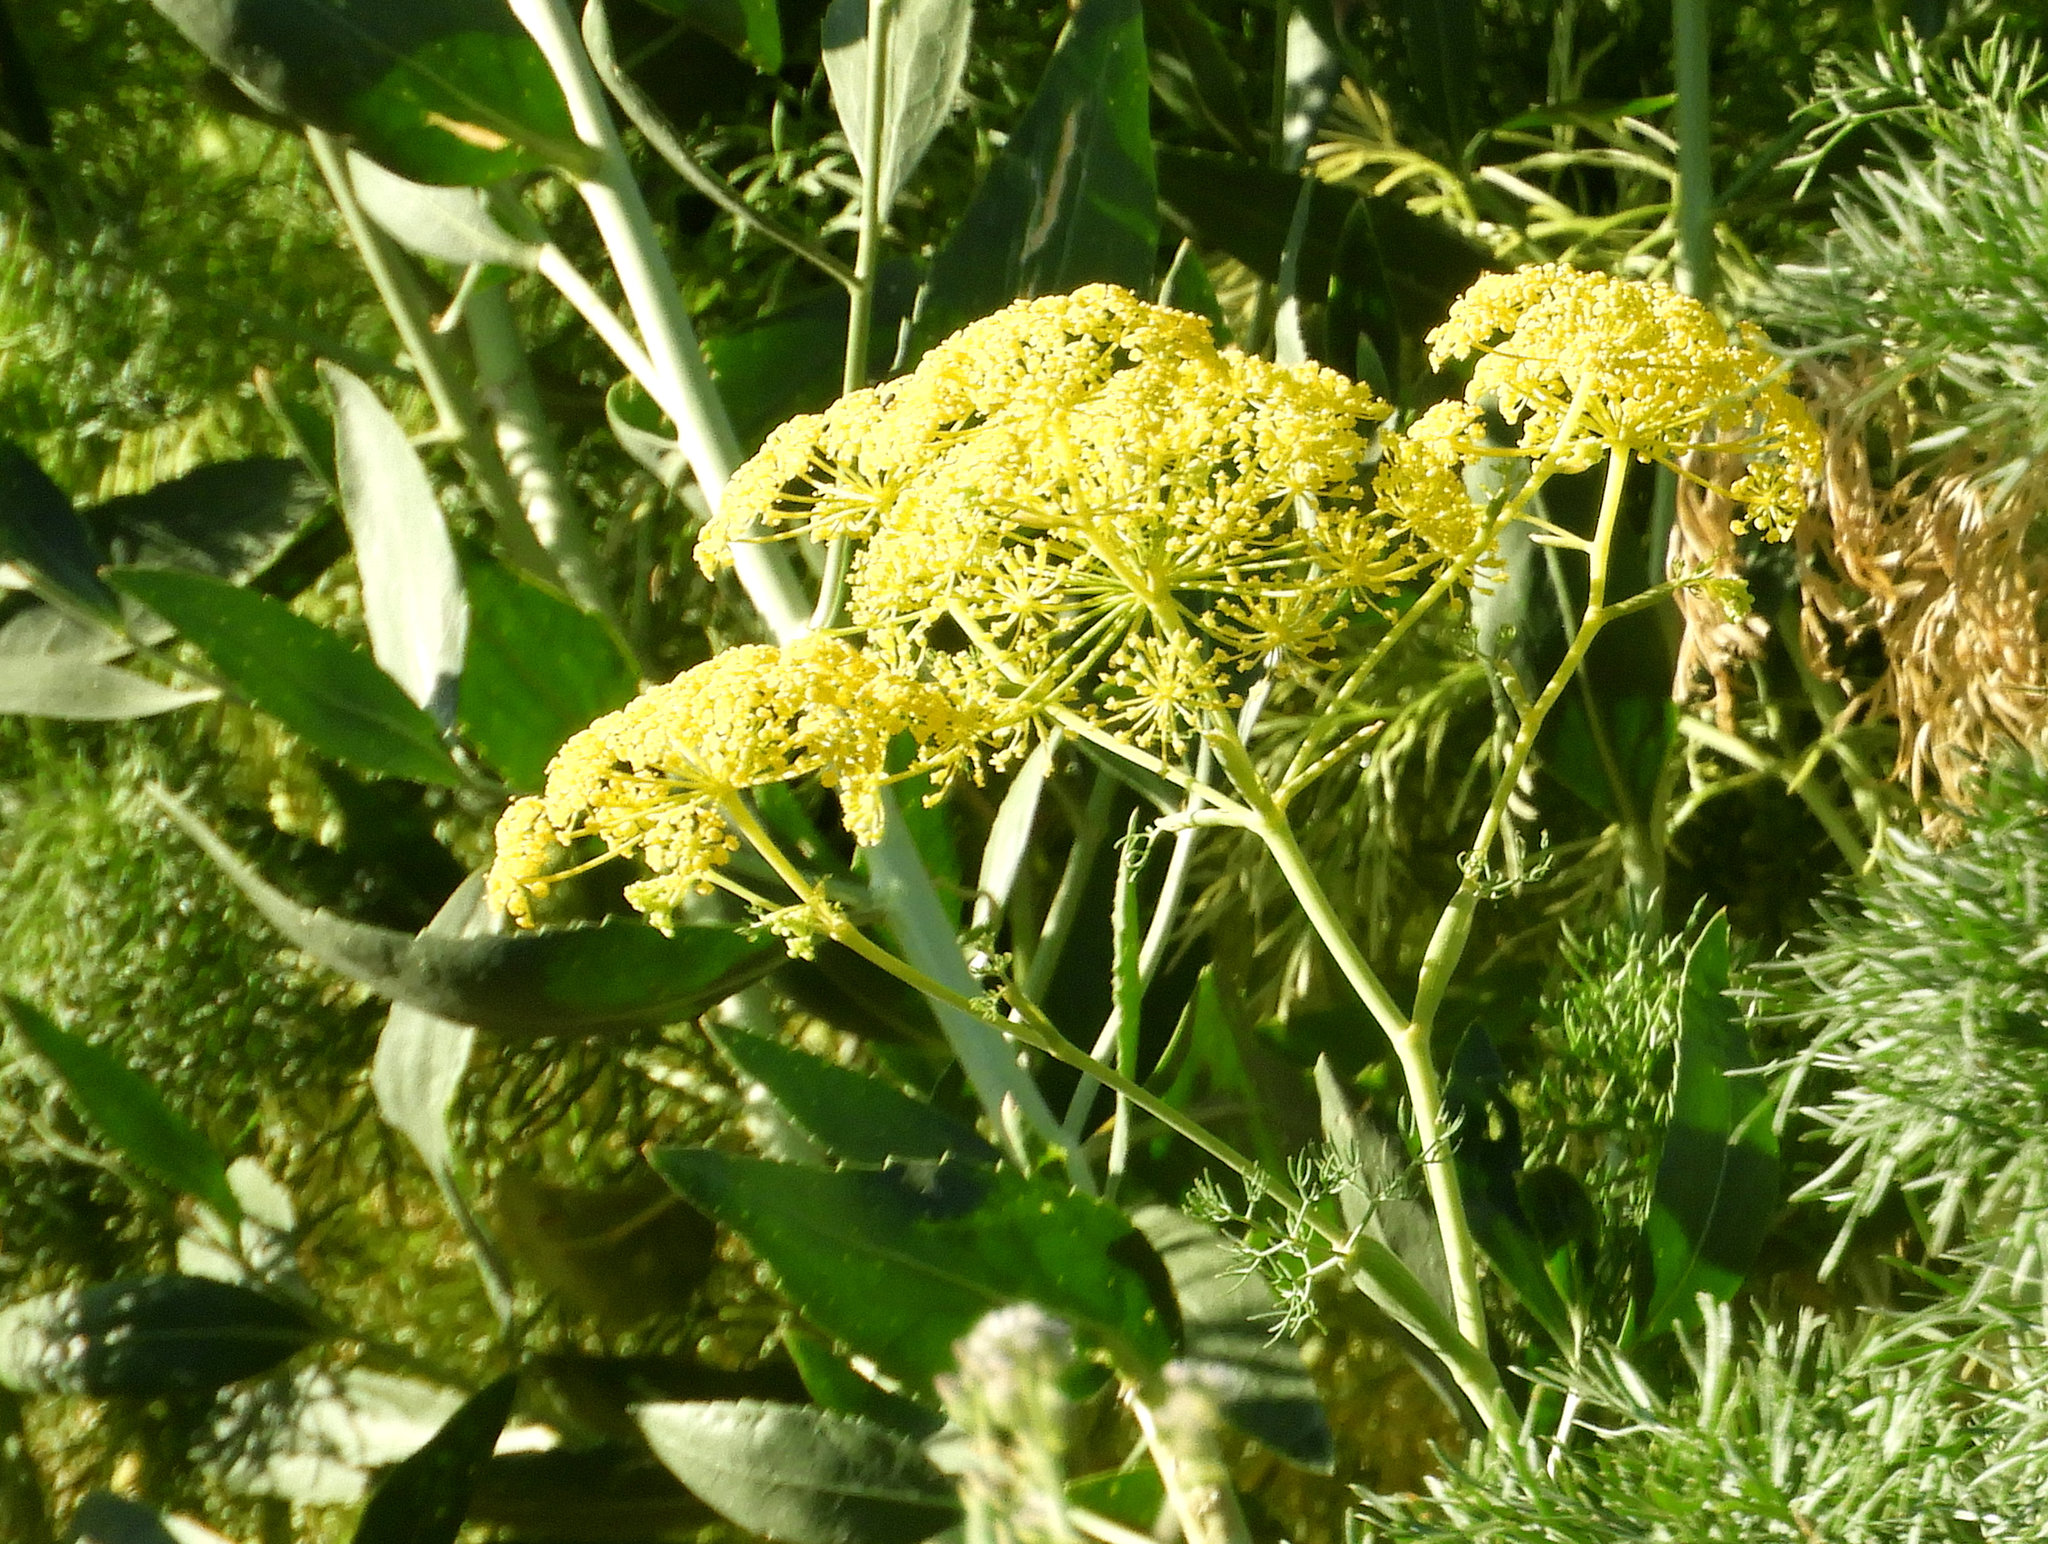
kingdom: Plantae
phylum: Tracheophyta
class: Magnoliopsida
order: Apiales
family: Apiaceae
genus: Foeniculum
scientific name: Foeniculum vulgare
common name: Fennel
